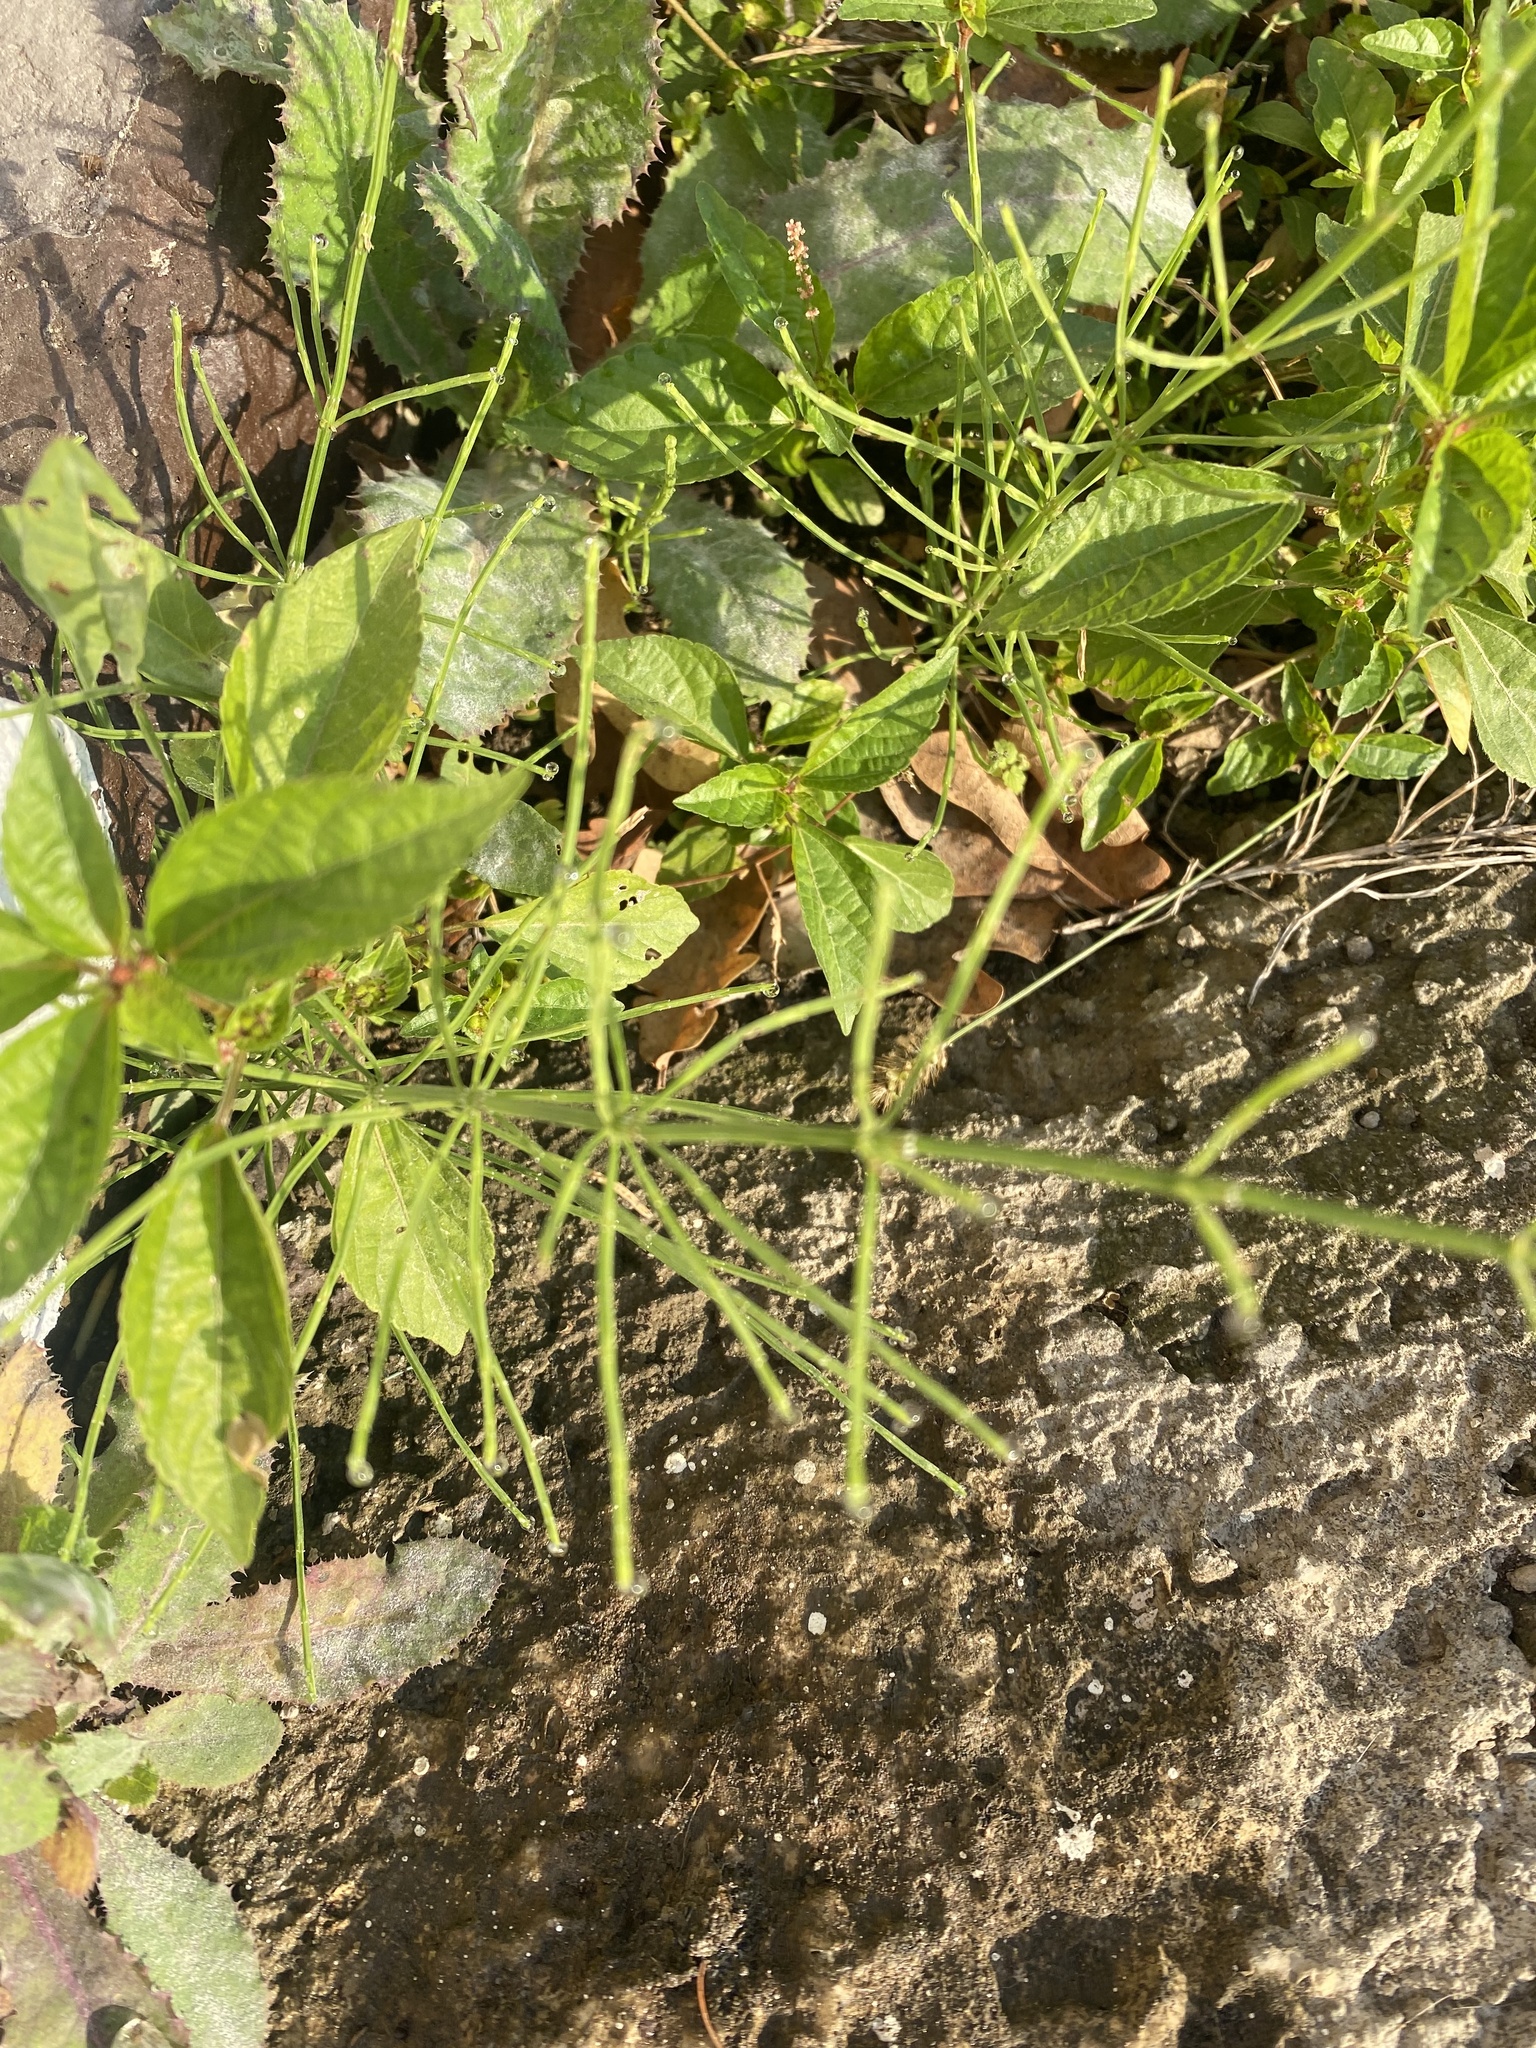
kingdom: Plantae
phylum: Tracheophyta
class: Polypodiopsida
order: Equisetales
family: Equisetaceae
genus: Equisetum
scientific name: Equisetum arvense
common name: Field horsetail
